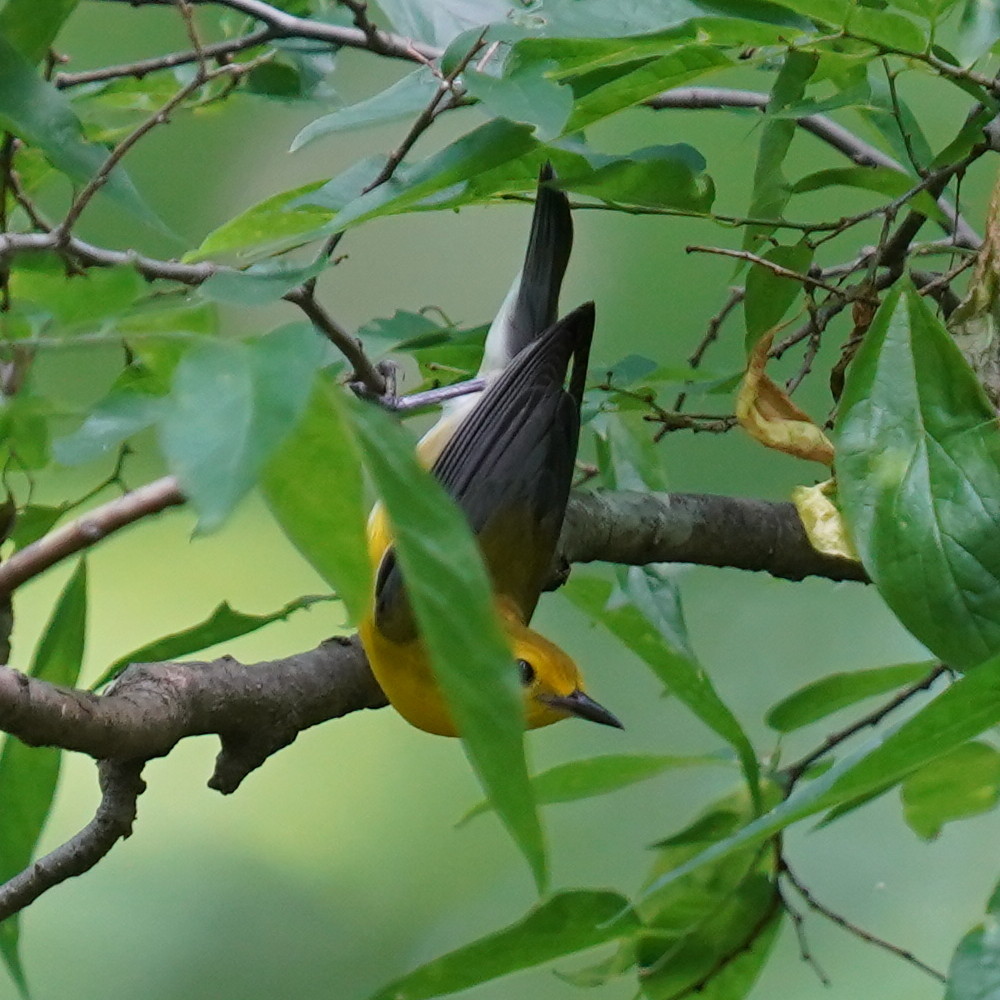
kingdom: Animalia
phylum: Chordata
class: Aves
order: Passeriformes
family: Parulidae
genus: Protonotaria
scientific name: Protonotaria citrea
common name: Prothonotary warbler
